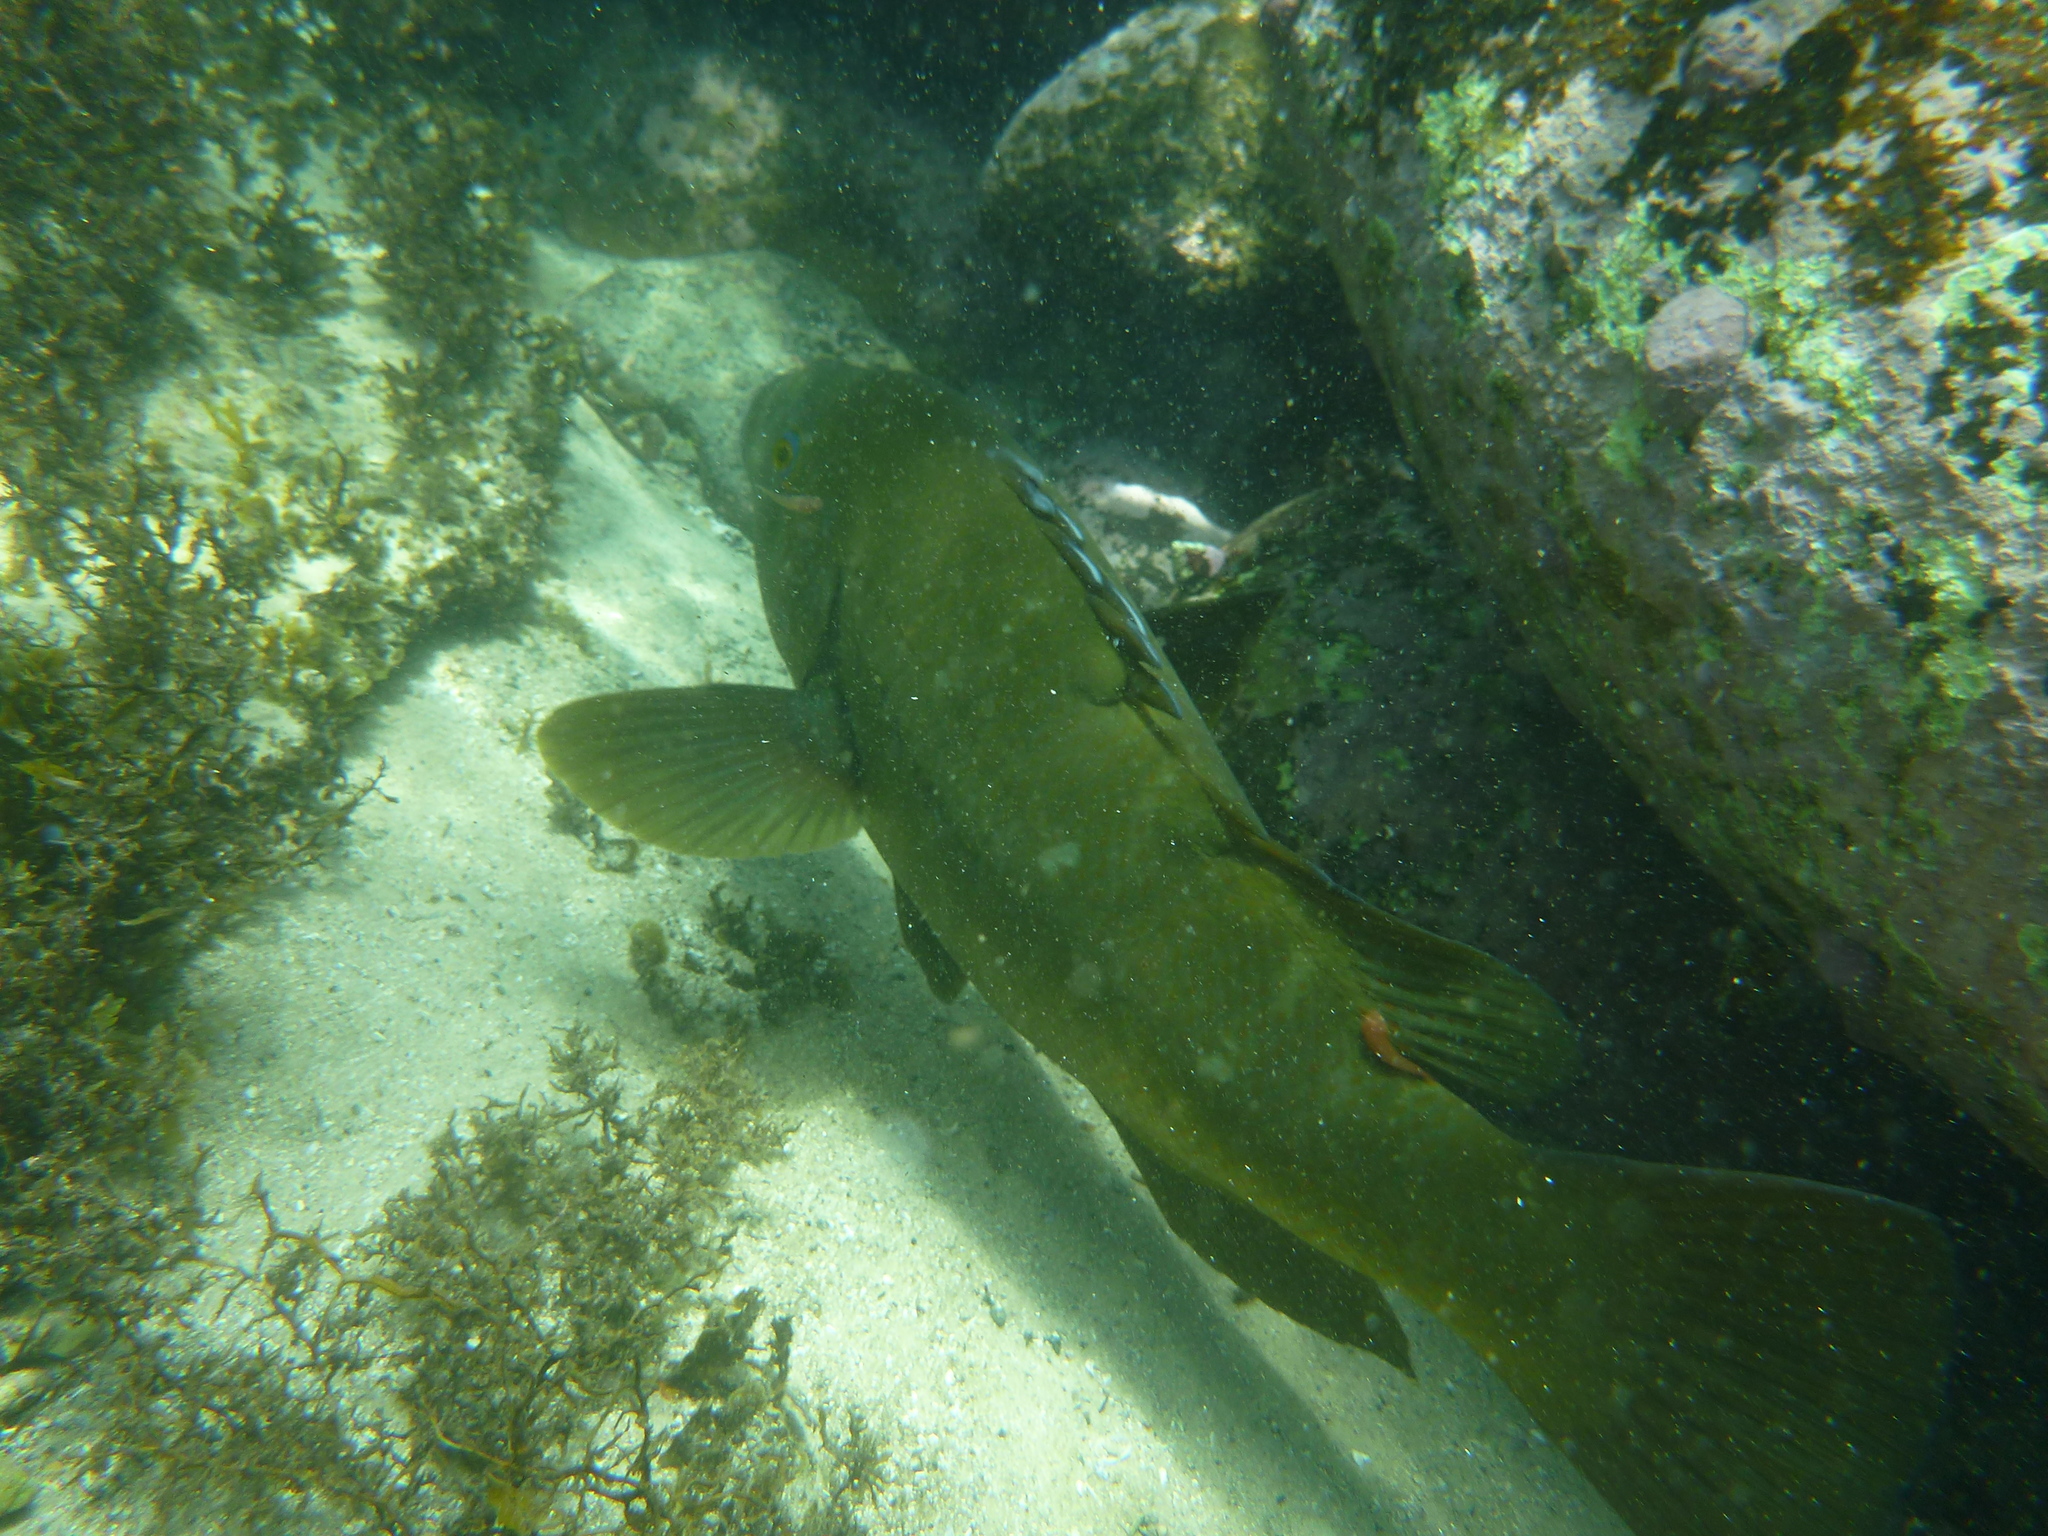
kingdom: Animalia
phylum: Chordata
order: Perciformes
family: Labridae
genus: Achoerodus
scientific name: Achoerodus viridis
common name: Brown groper
